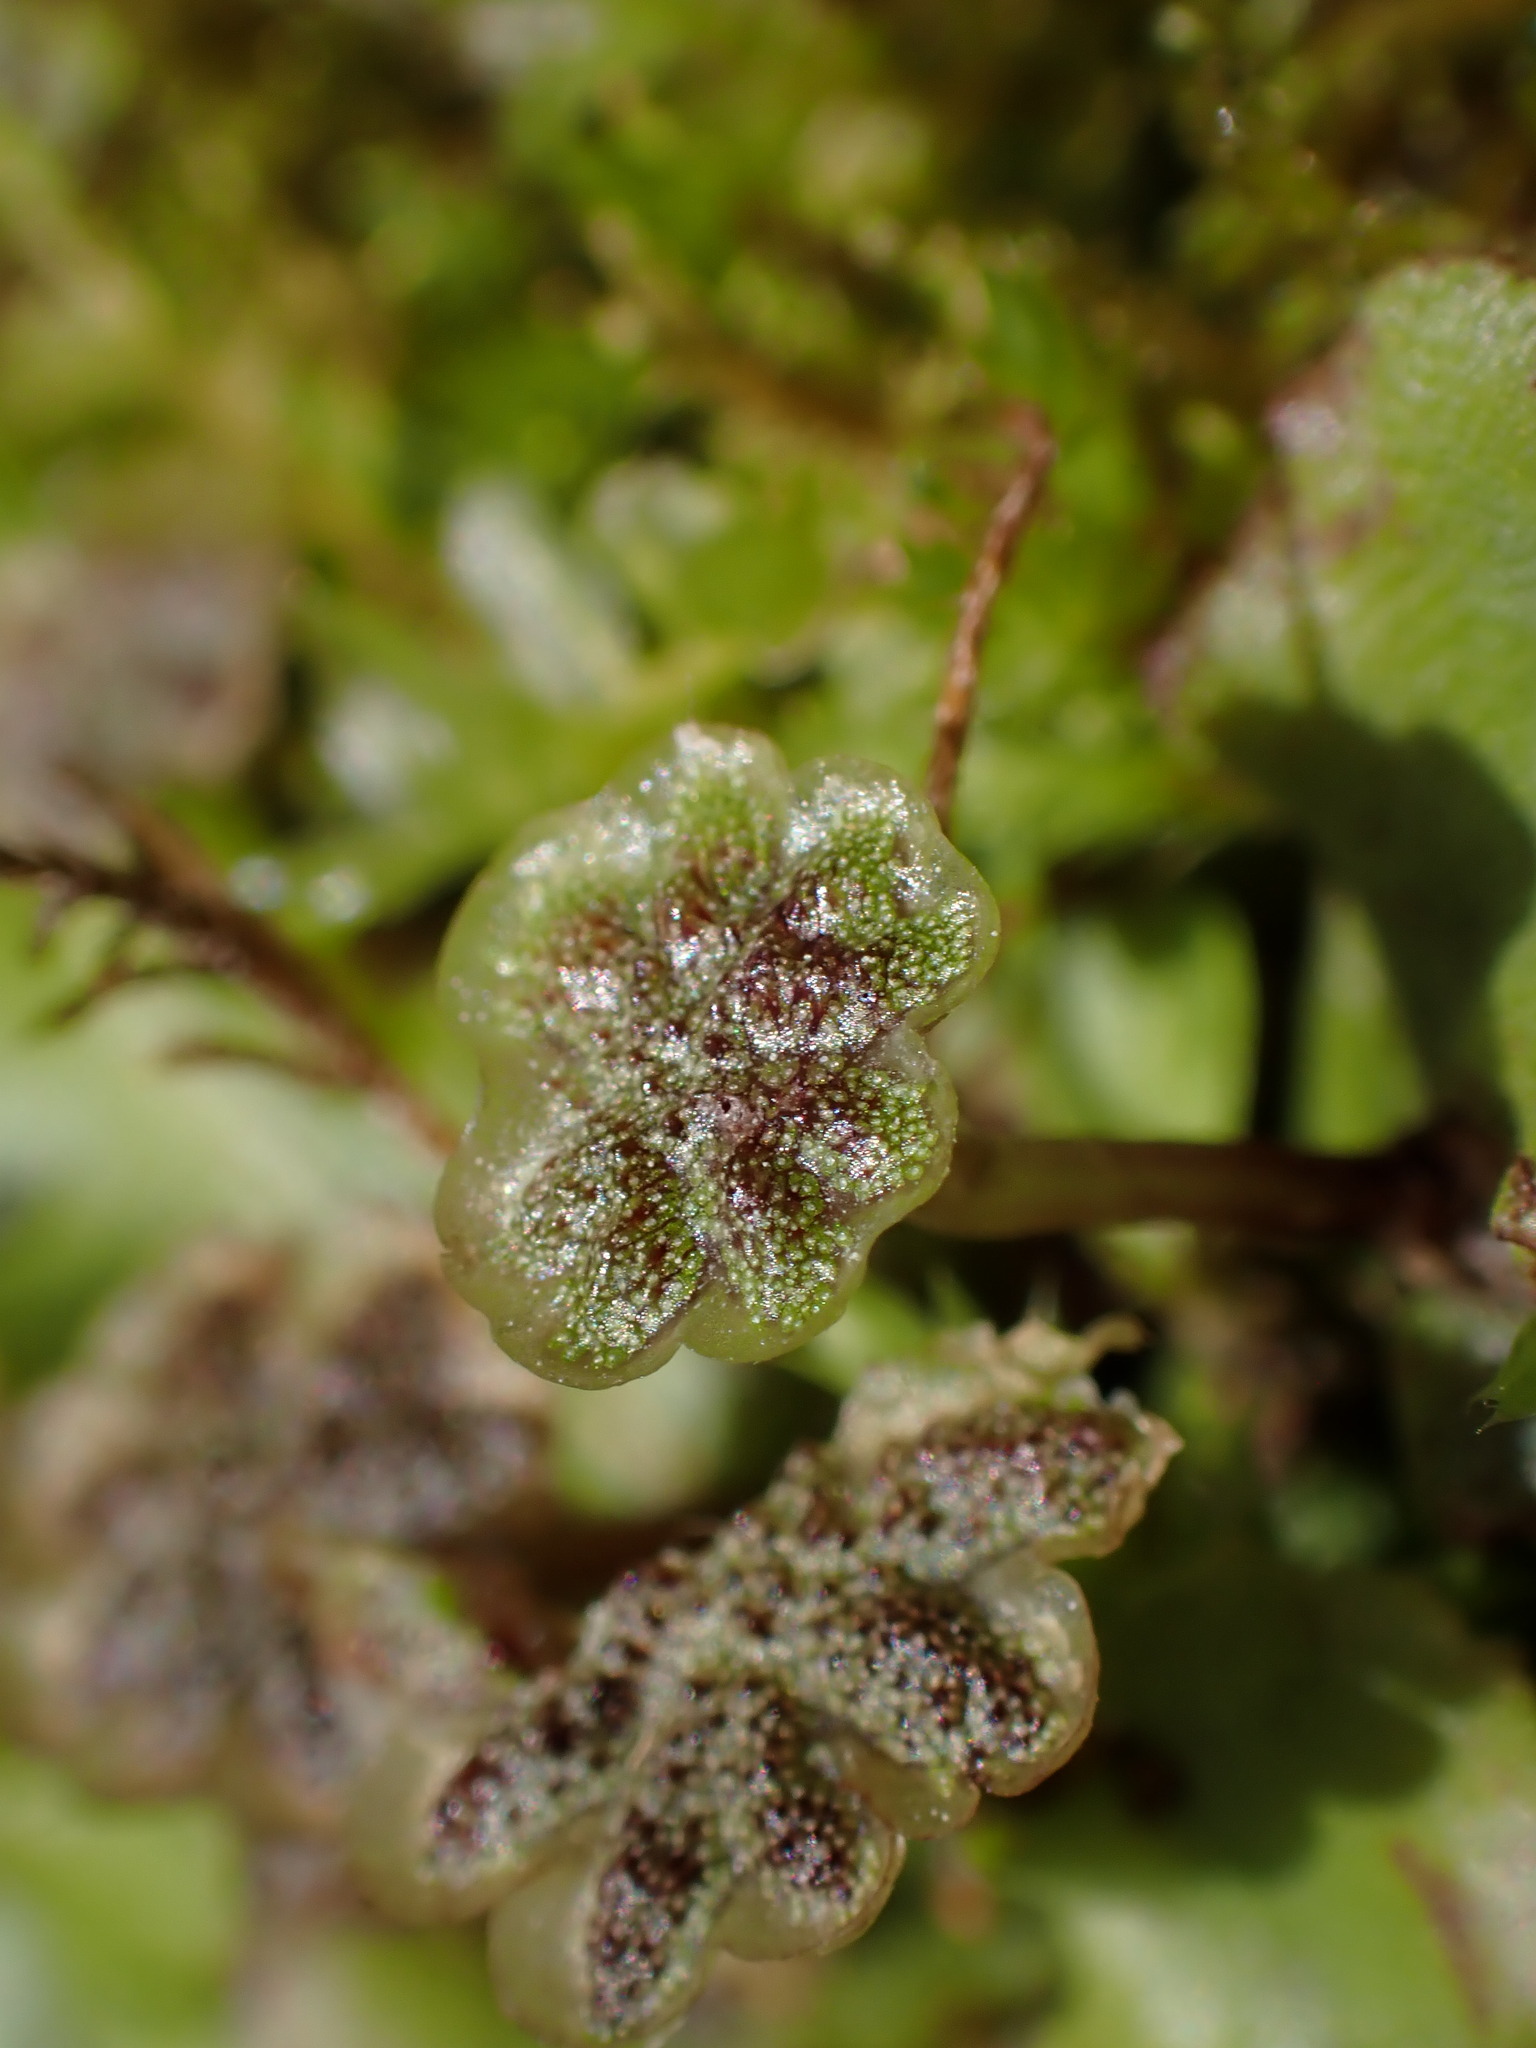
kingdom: Plantae
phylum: Marchantiophyta
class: Marchantiopsida
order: Marchantiales
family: Marchantiaceae
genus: Marchantia
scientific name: Marchantia polymorpha
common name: Common liverwort
